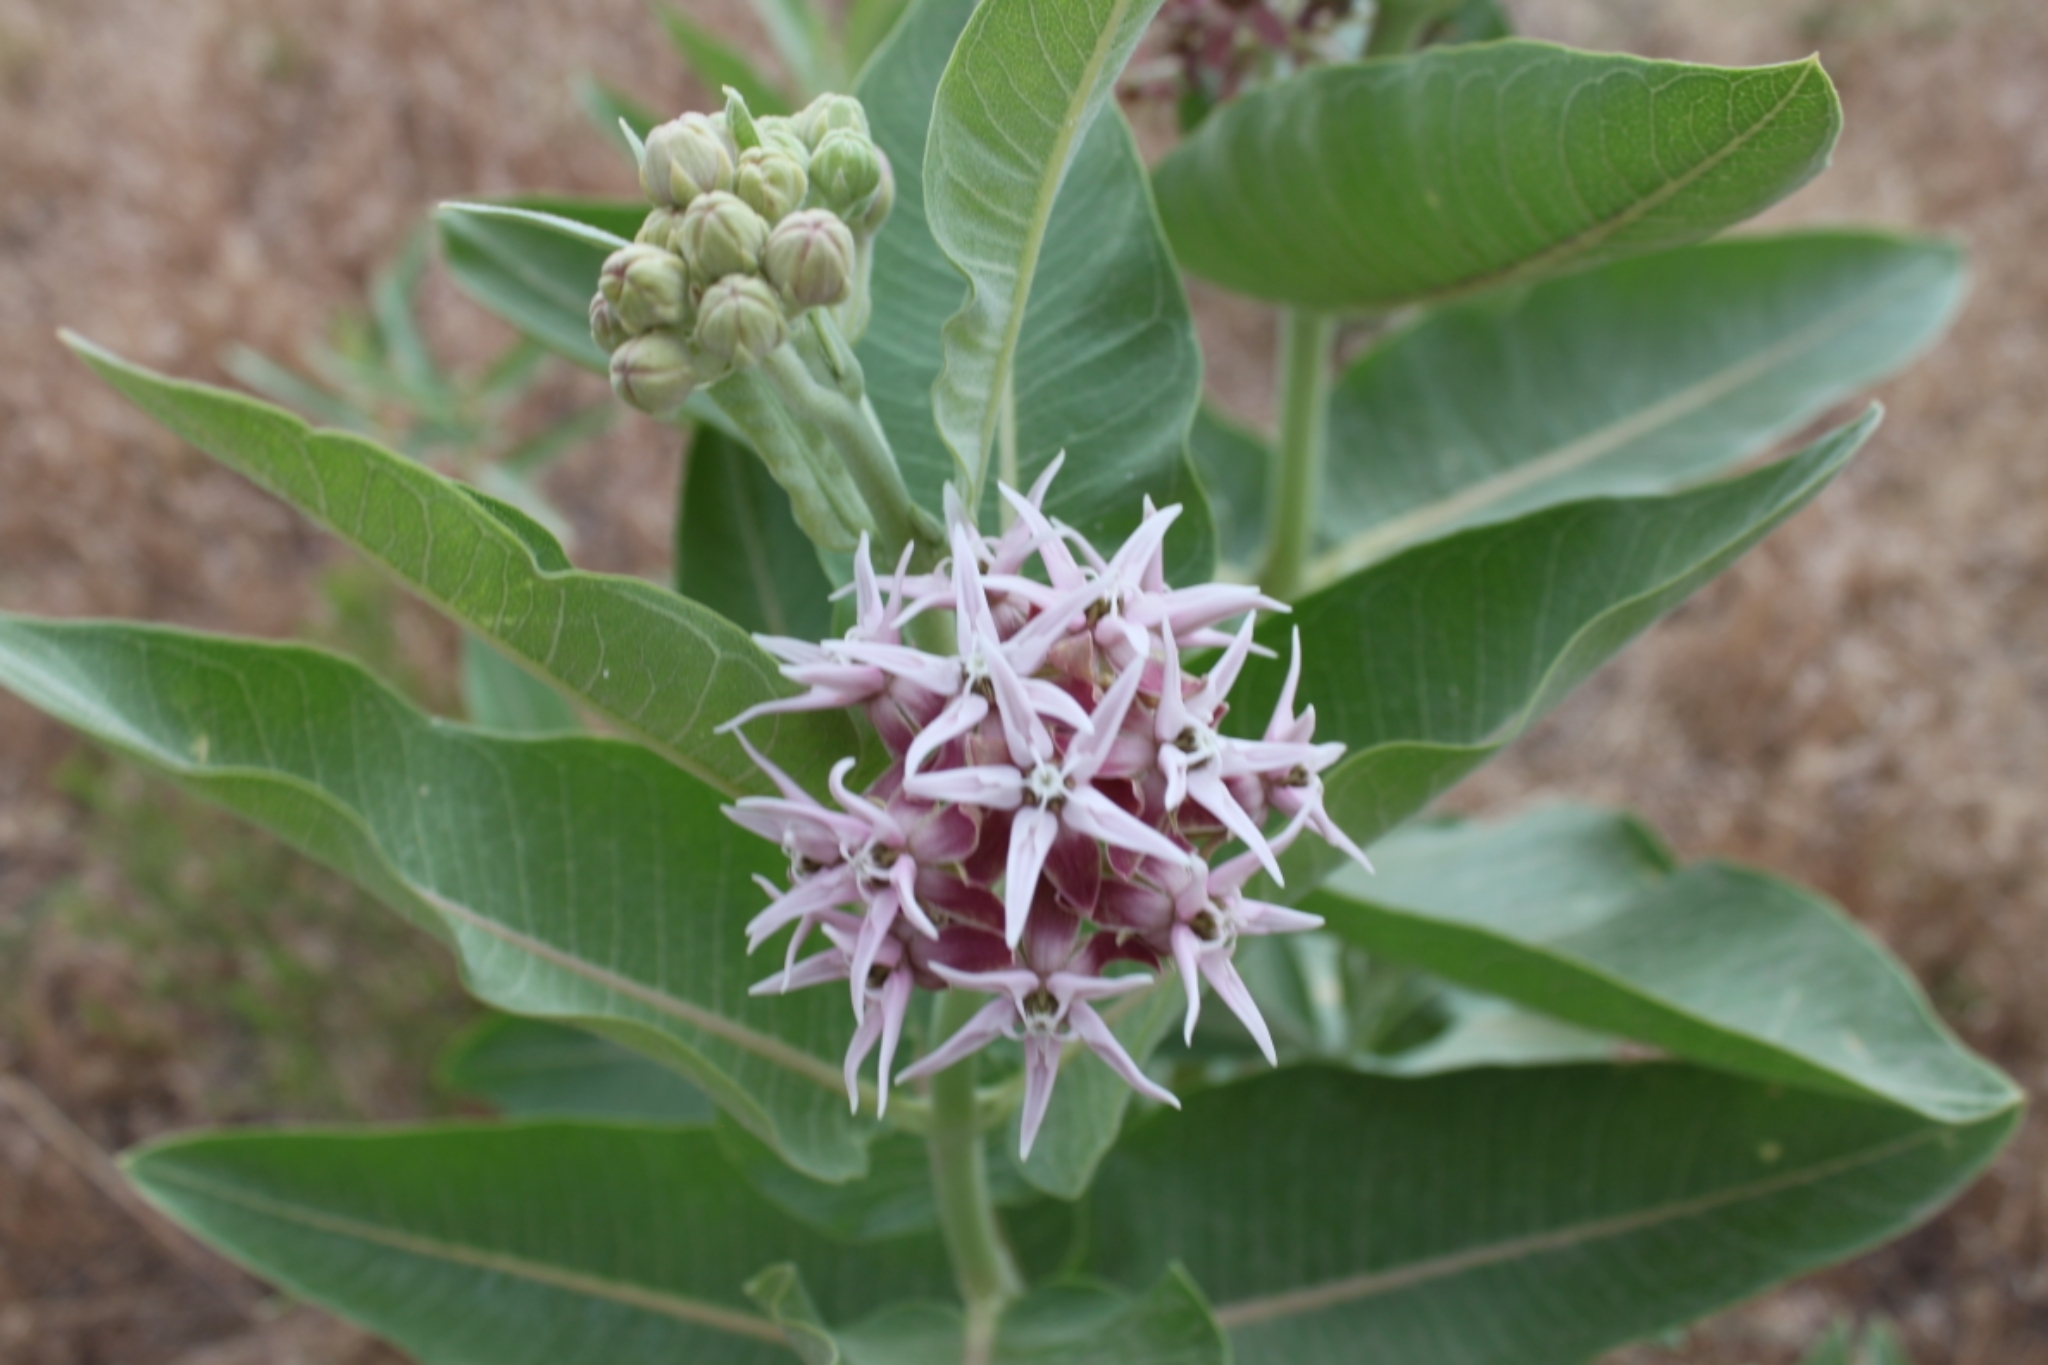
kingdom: Plantae
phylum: Tracheophyta
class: Magnoliopsida
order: Gentianales
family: Apocynaceae
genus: Asclepias
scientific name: Asclepias speciosa
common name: Showy milkweed
